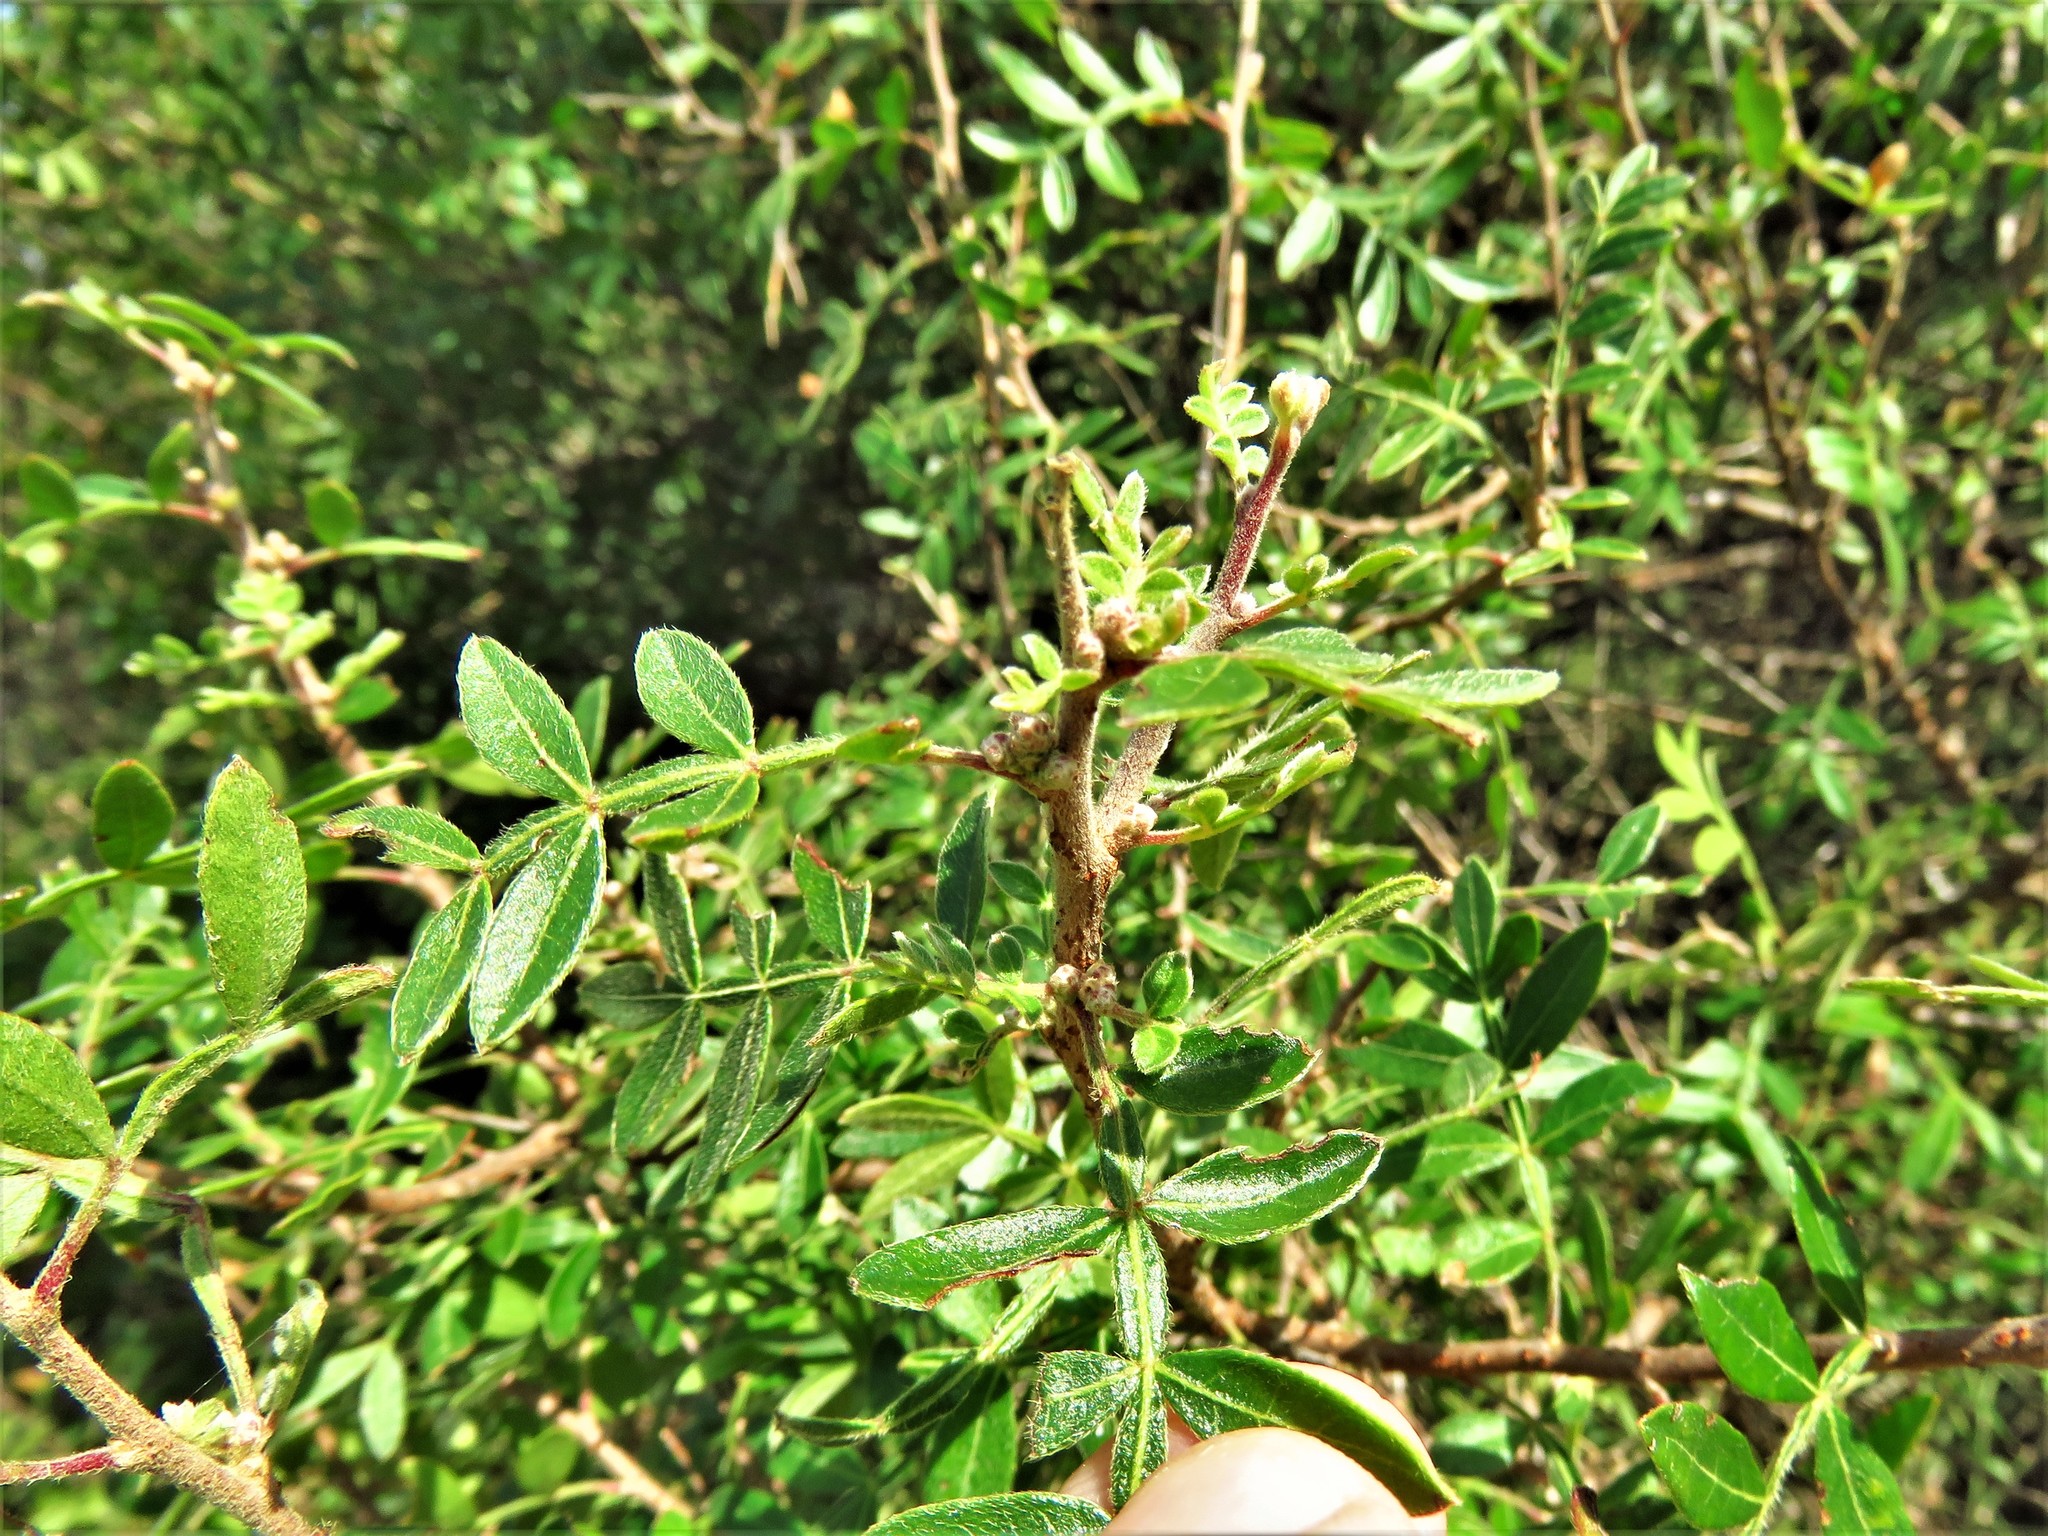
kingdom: Plantae
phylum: Tracheophyta
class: Magnoliopsida
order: Sapindales
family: Anacardiaceae
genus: Rhus
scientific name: Rhus microphylla
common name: Desert sumac
